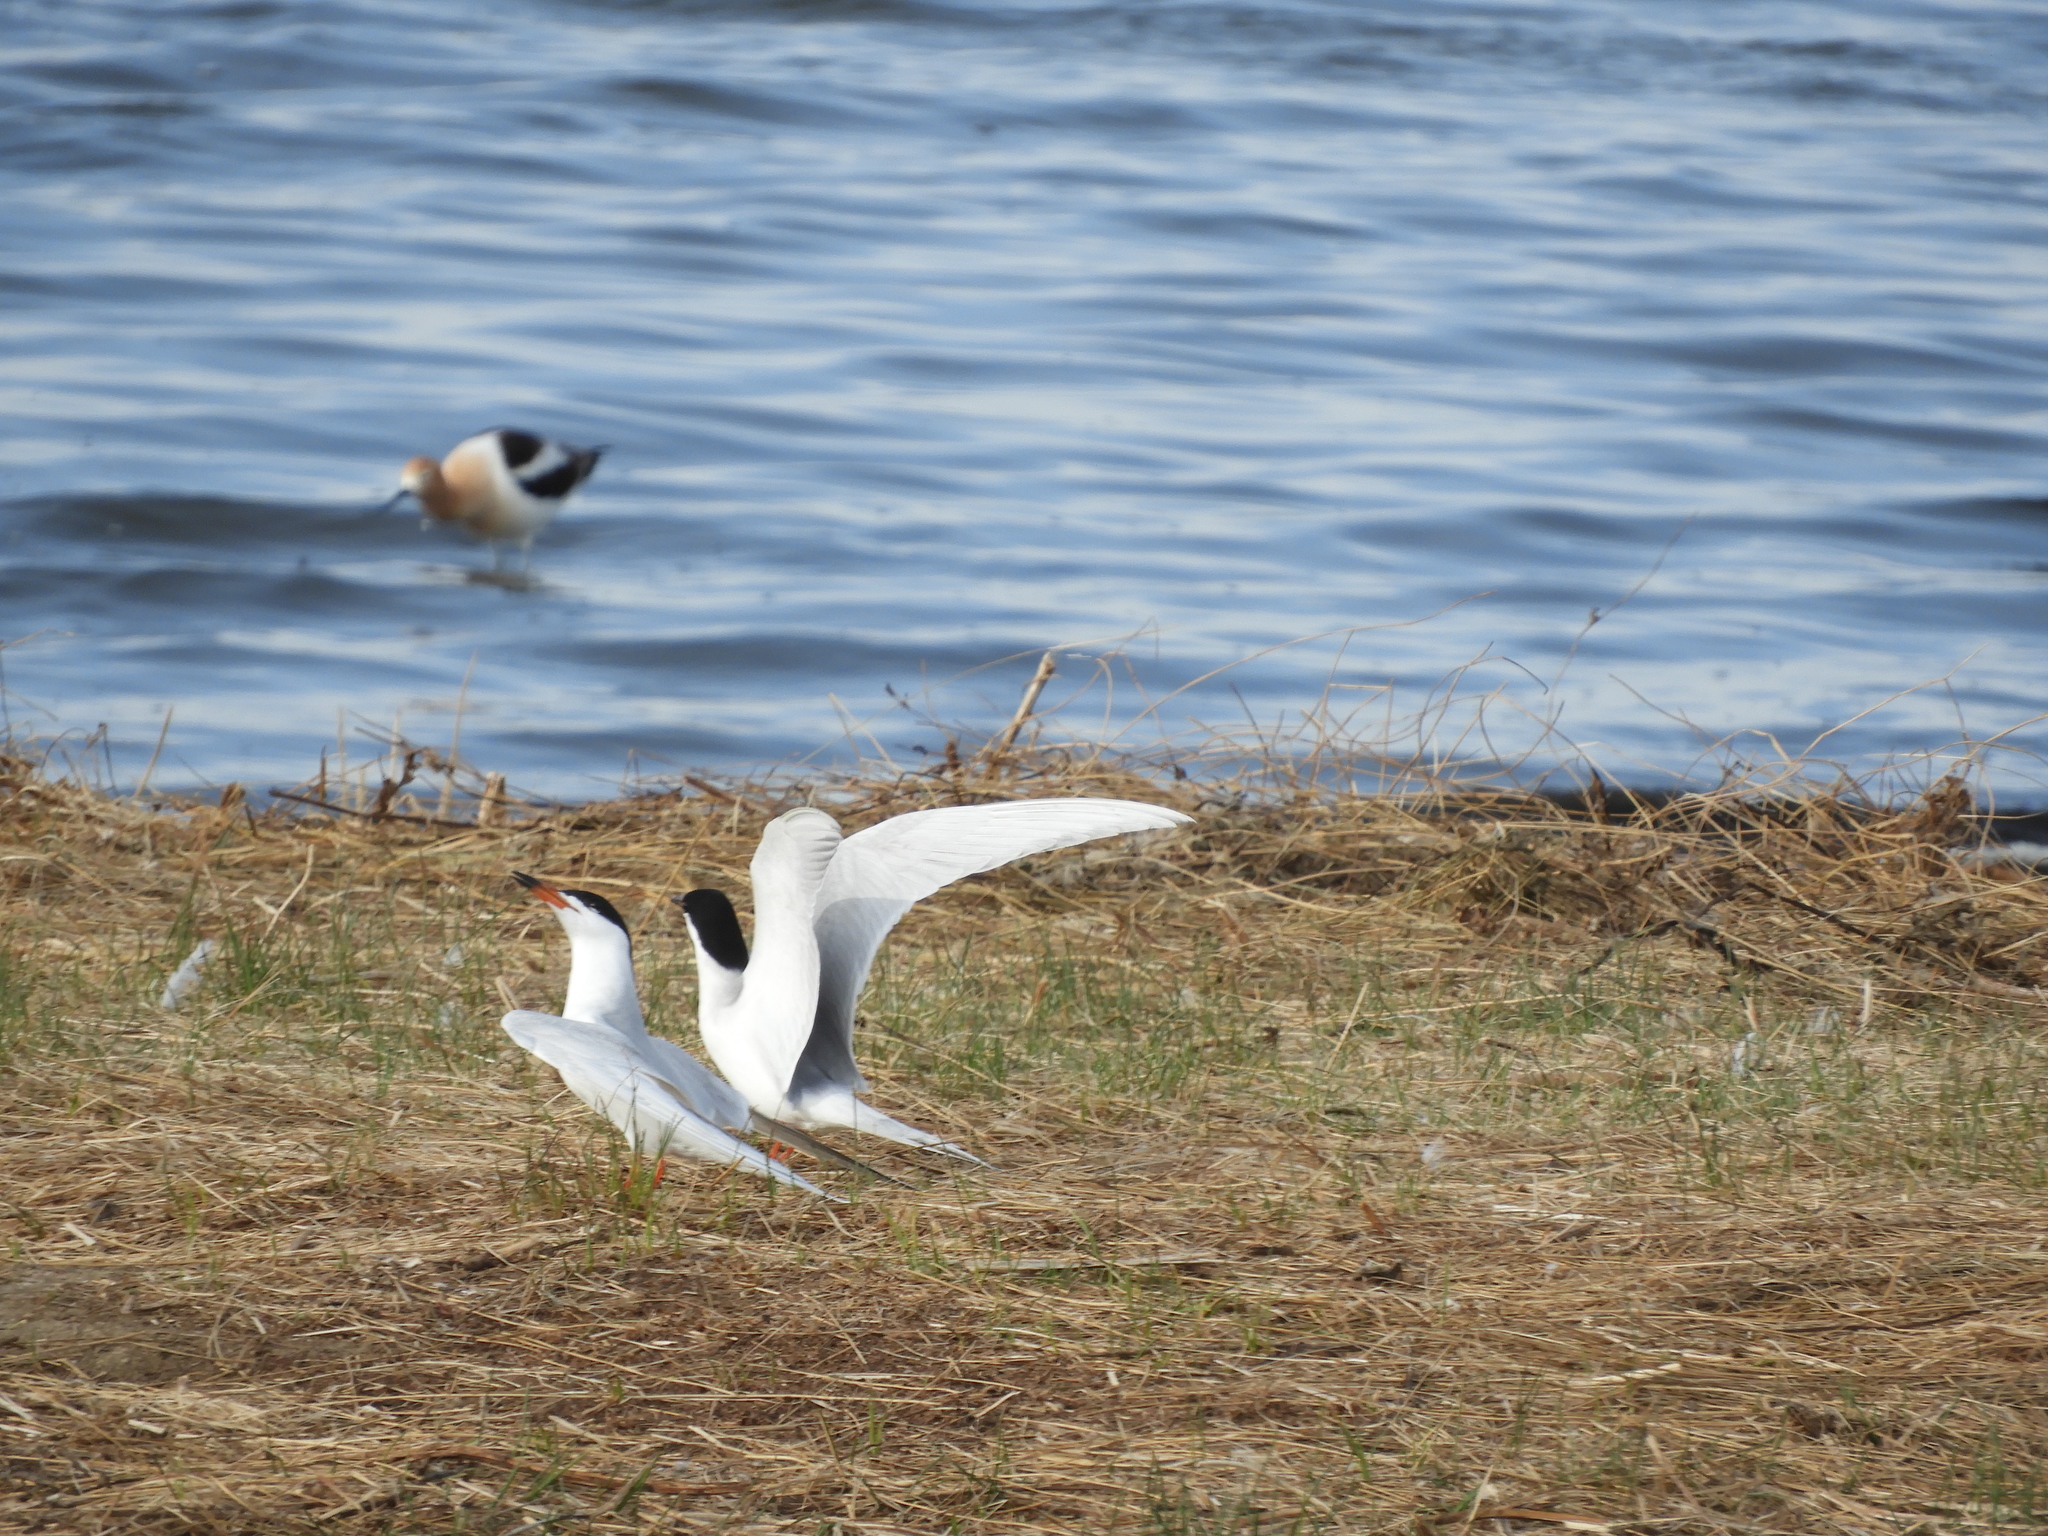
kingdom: Animalia
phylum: Chordata
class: Aves
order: Charadriiformes
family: Laridae
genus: Sterna
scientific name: Sterna forsteri
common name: Forster's tern
